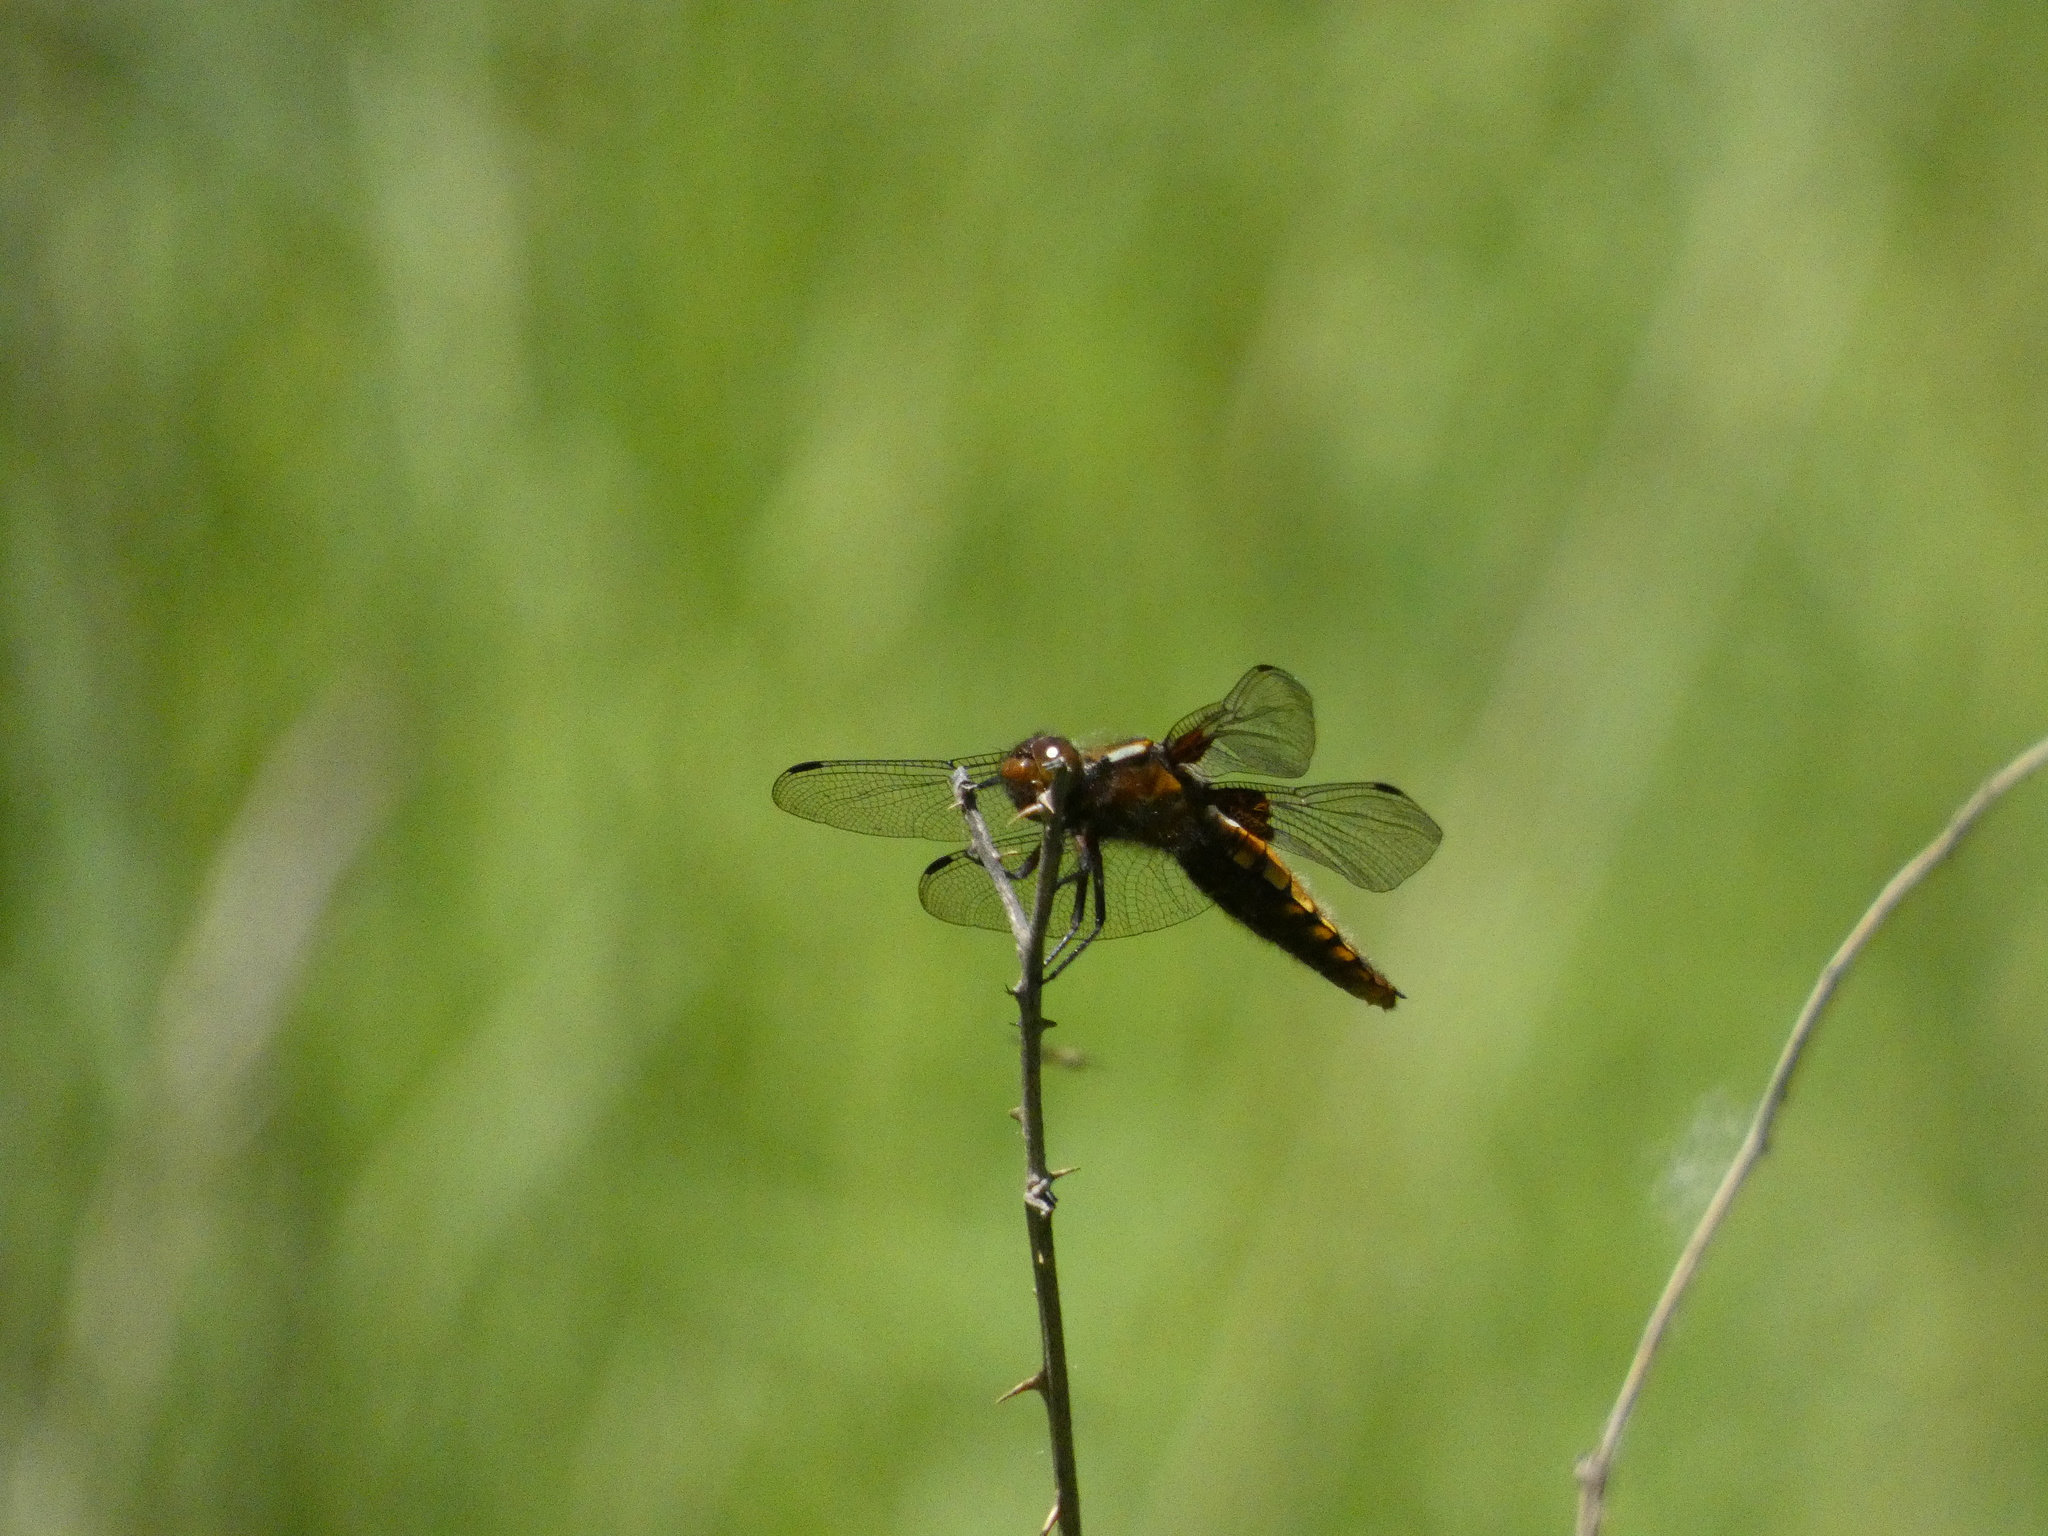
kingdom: Animalia
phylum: Arthropoda
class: Insecta
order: Odonata
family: Libellulidae
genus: Libellula
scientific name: Libellula depressa
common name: Broad-bodied chaser
